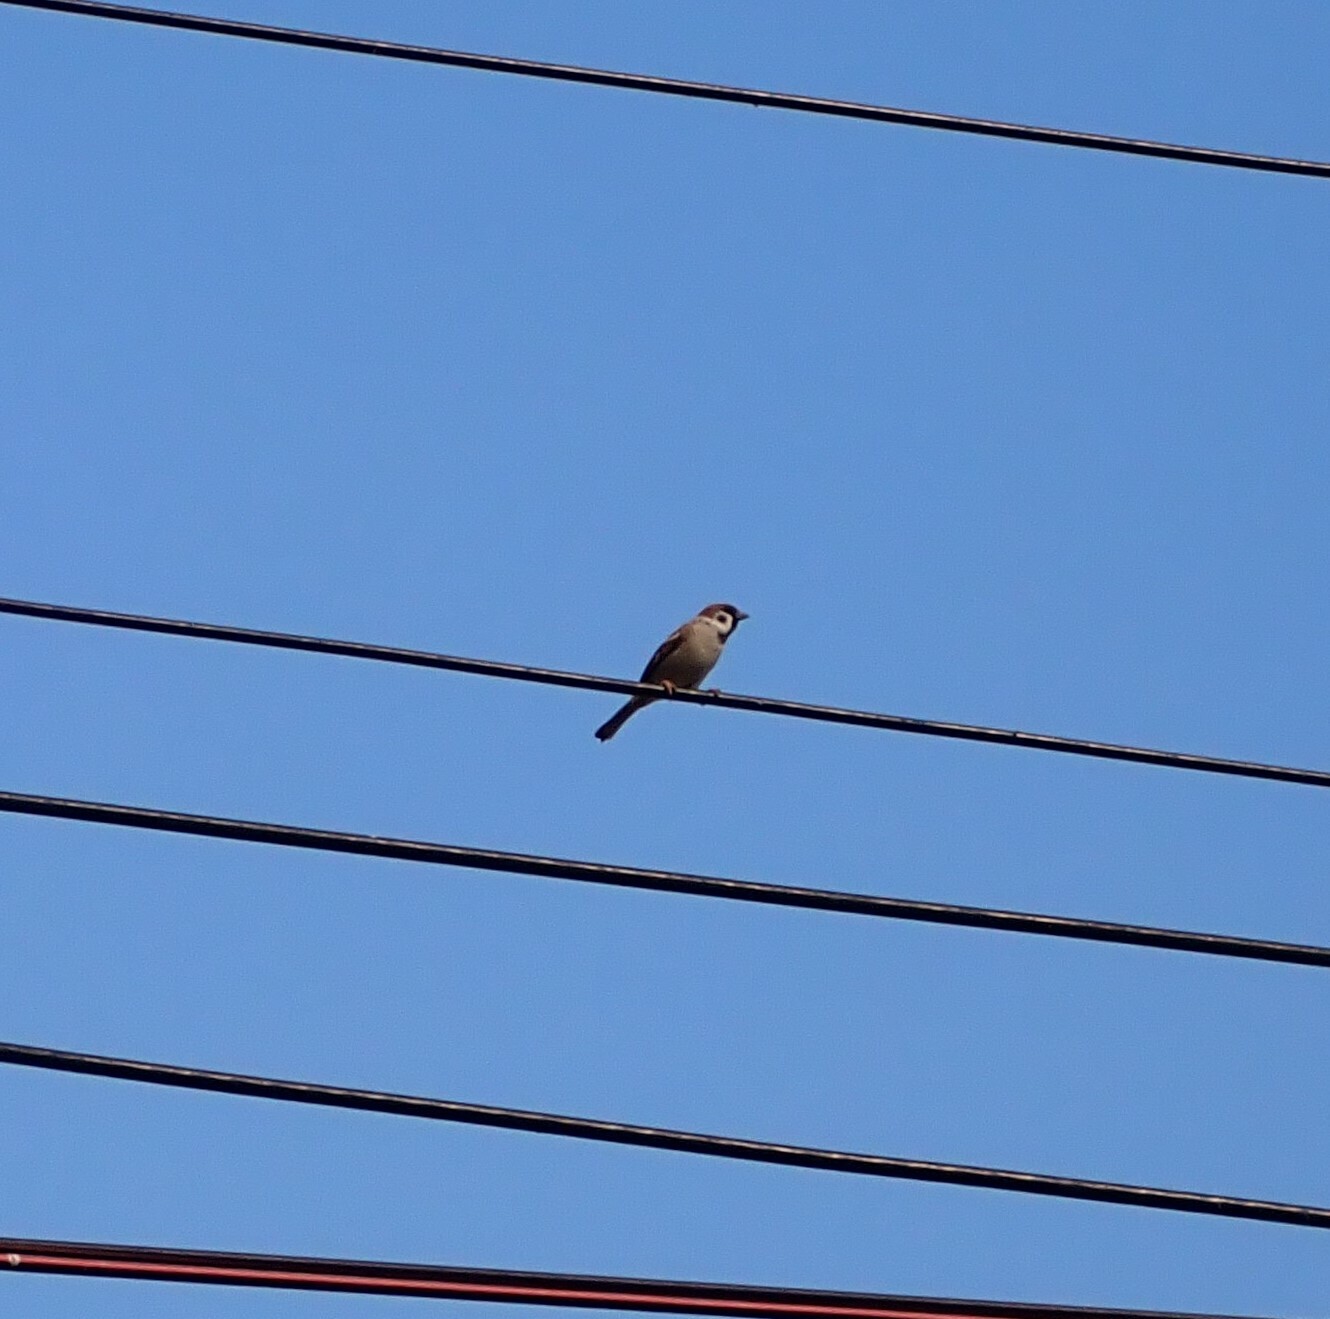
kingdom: Animalia
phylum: Chordata
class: Aves
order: Passeriformes
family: Passeridae
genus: Passer
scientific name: Passer montanus
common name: Eurasian tree sparrow
